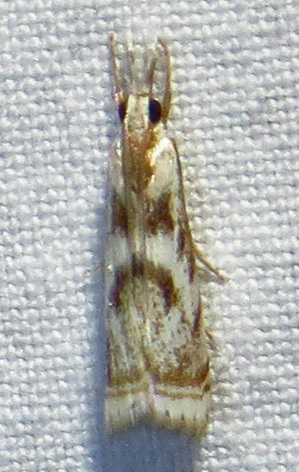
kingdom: Animalia
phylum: Arthropoda
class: Insecta
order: Lepidoptera
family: Crambidae
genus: Microcrambus
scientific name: Microcrambus elegans
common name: Elegant grass-veneer
